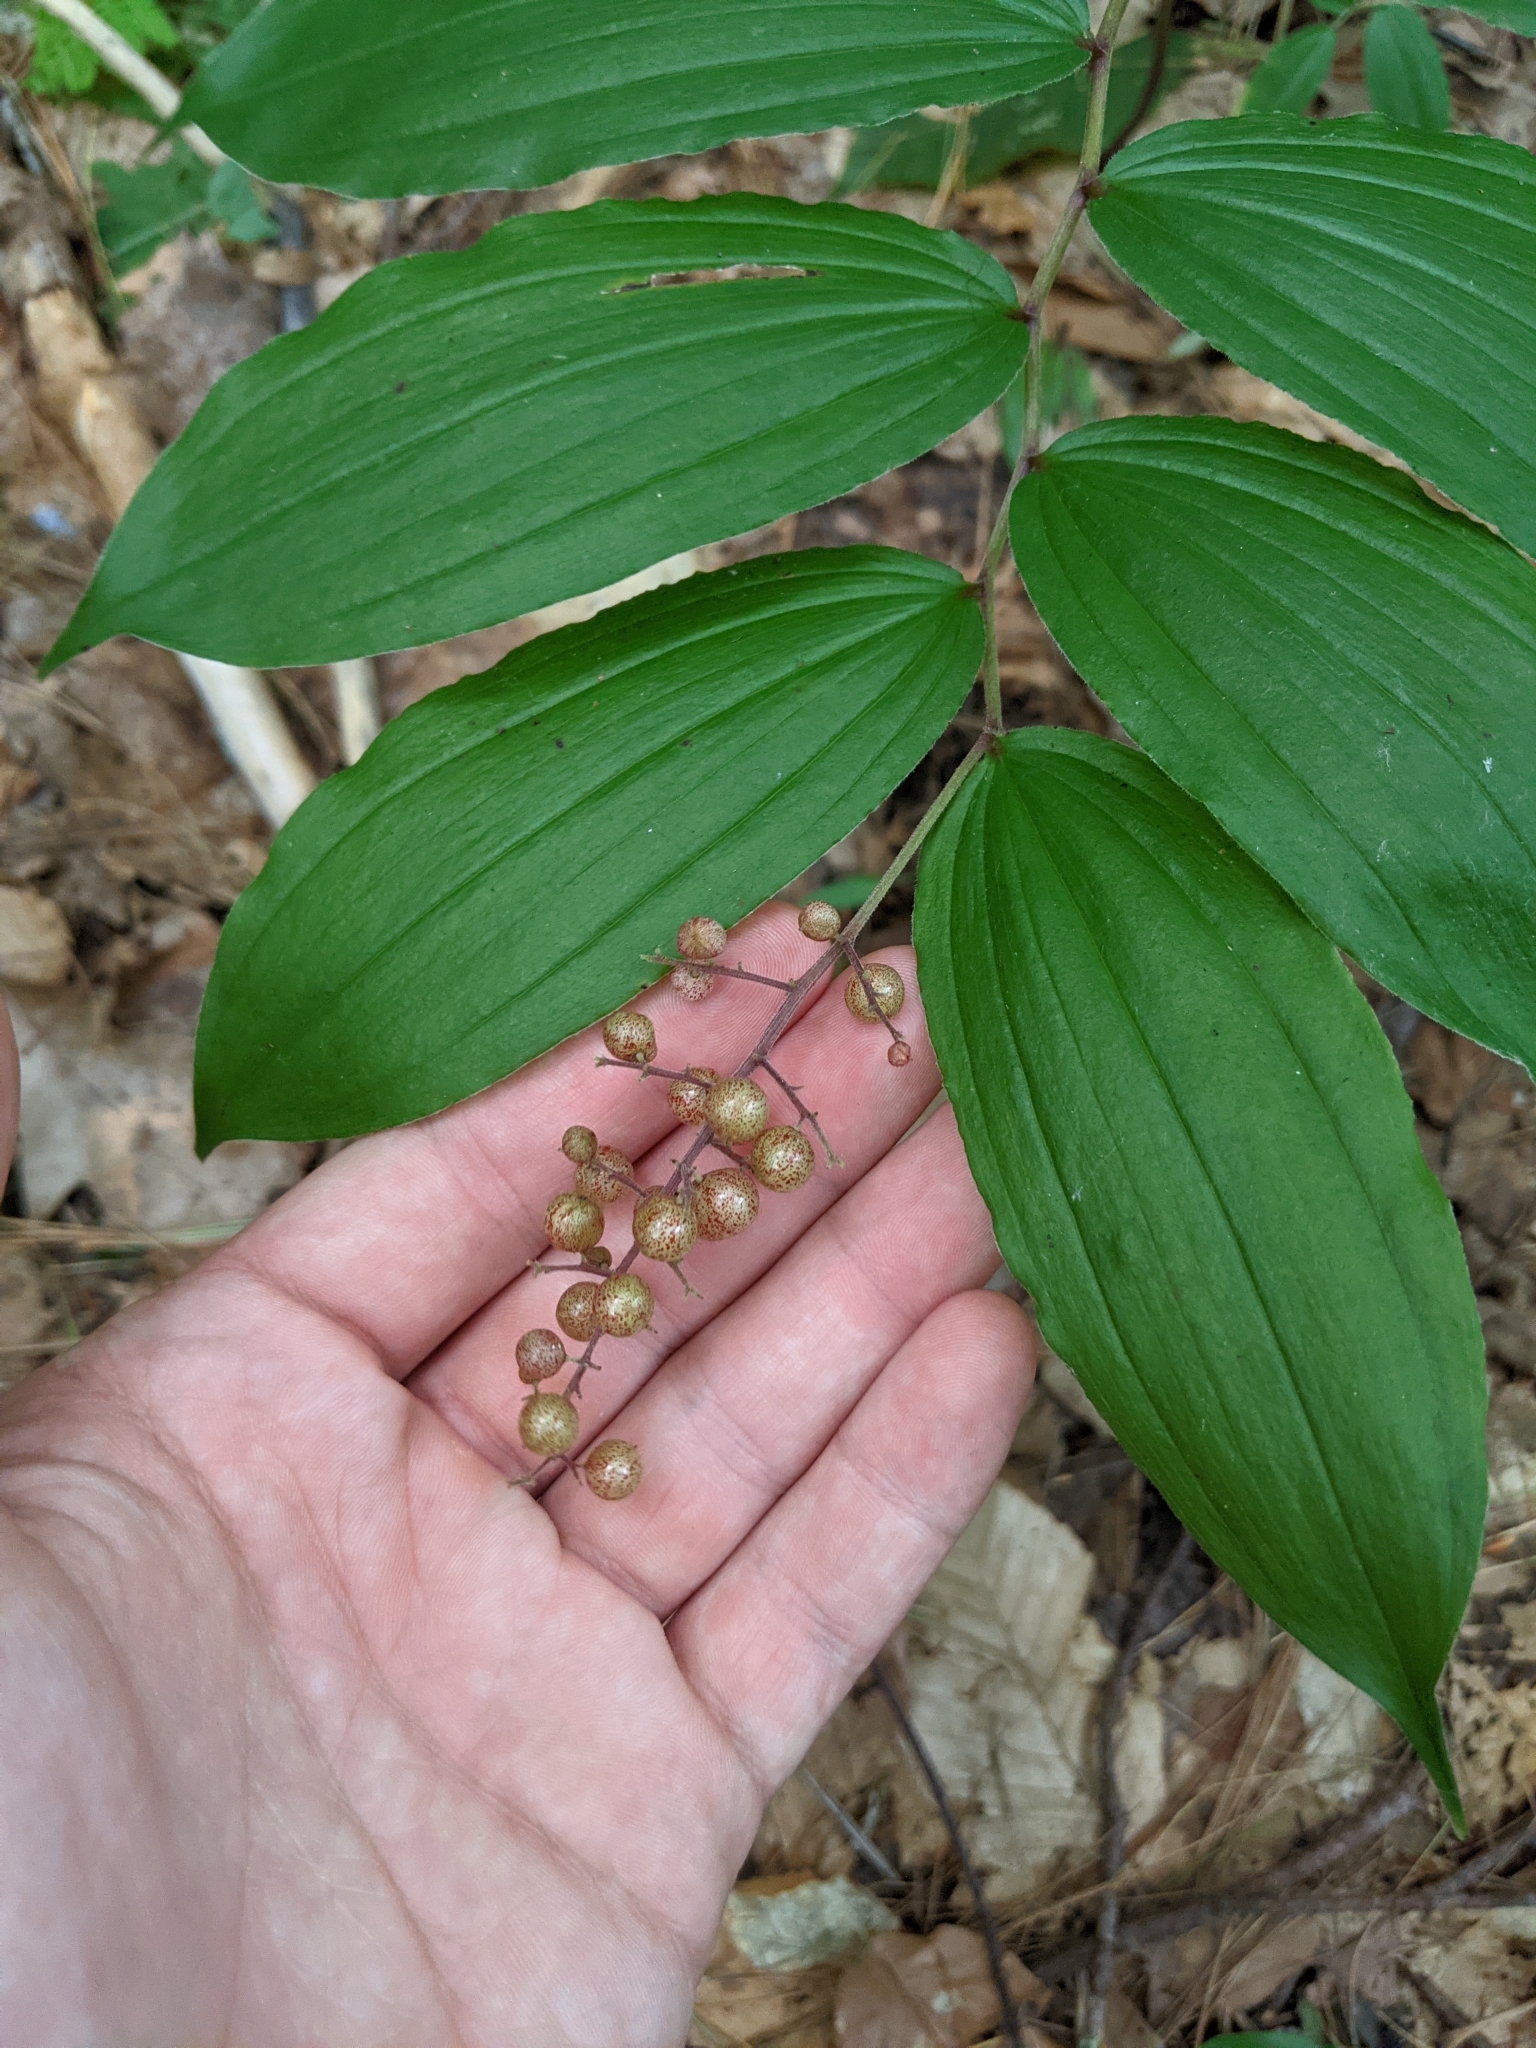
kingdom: Plantae
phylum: Tracheophyta
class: Liliopsida
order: Asparagales
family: Asparagaceae
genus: Maianthemum
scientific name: Maianthemum racemosum
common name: False spikenard
